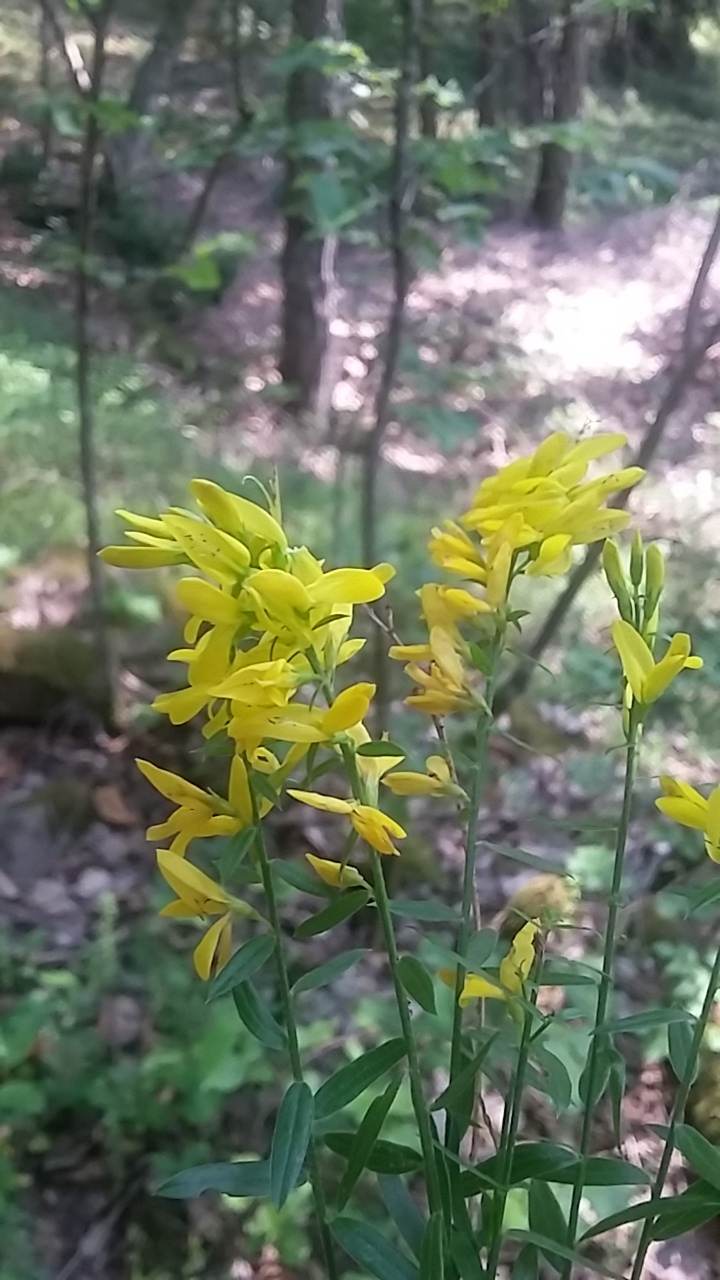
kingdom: Plantae
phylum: Tracheophyta
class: Magnoliopsida
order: Fabales
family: Fabaceae
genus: Genista
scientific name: Genista tinctoria
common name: Dyer's greenweed
